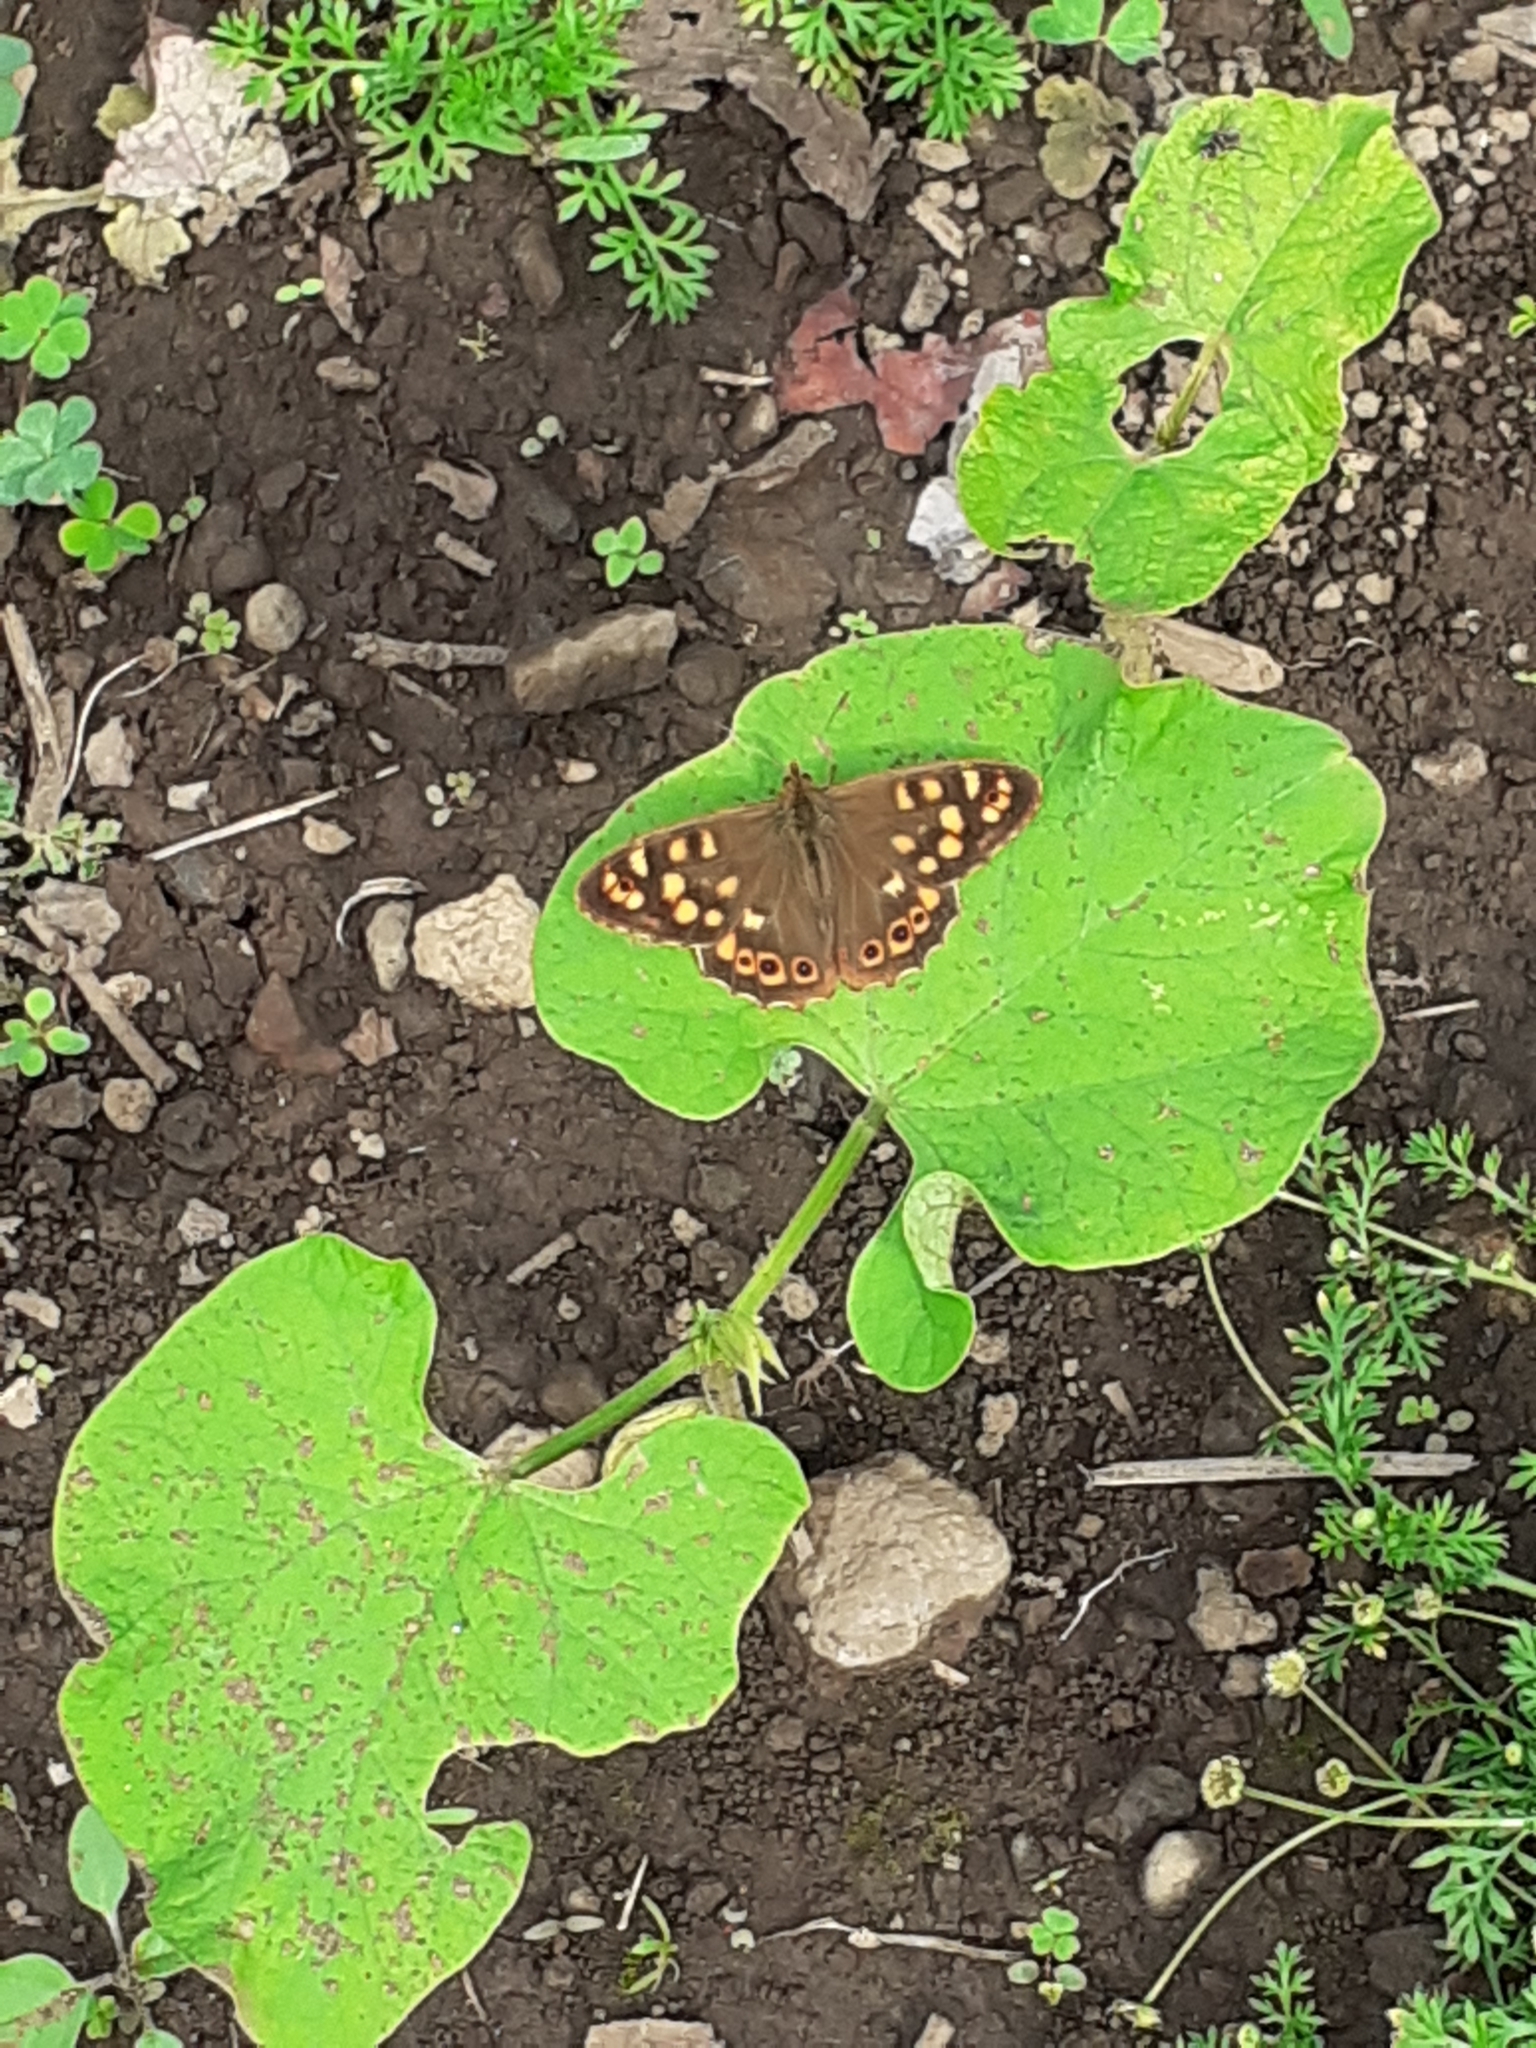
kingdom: Animalia
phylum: Arthropoda
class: Insecta
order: Lepidoptera
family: Nymphalidae
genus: Pararge
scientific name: Pararge aegeria
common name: Speckled wood
